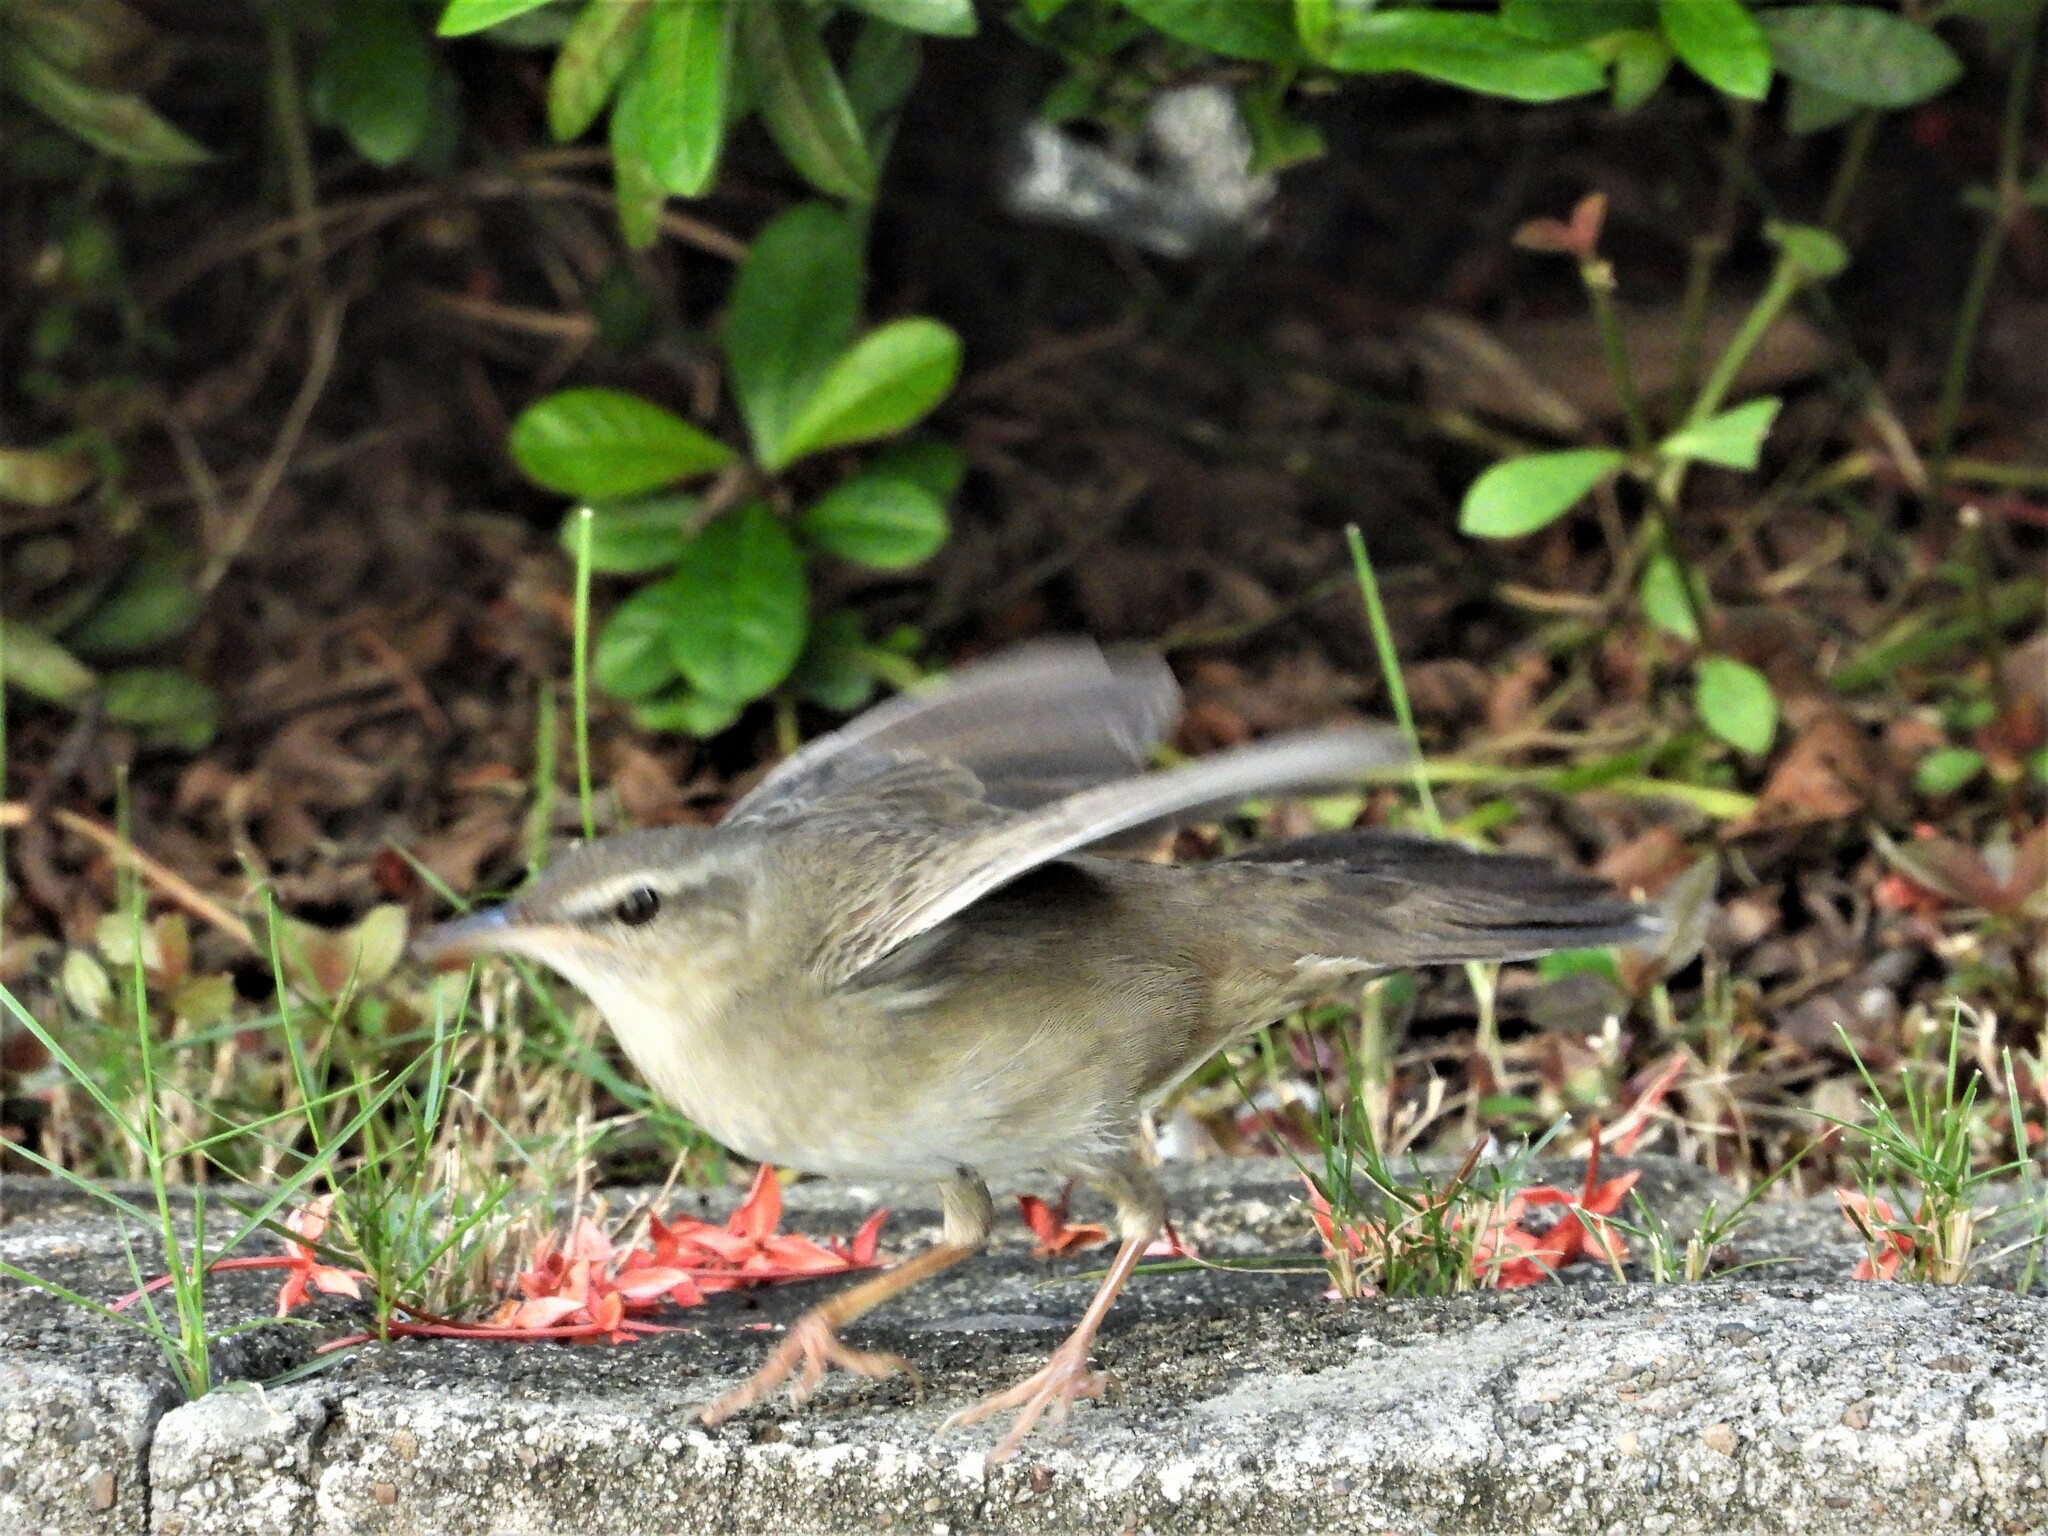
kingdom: Animalia
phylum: Chordata
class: Aves
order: Passeriformes
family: Locustellidae
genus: Locustella
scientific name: Locustella pleskei
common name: Styan's grasshopper warbler
